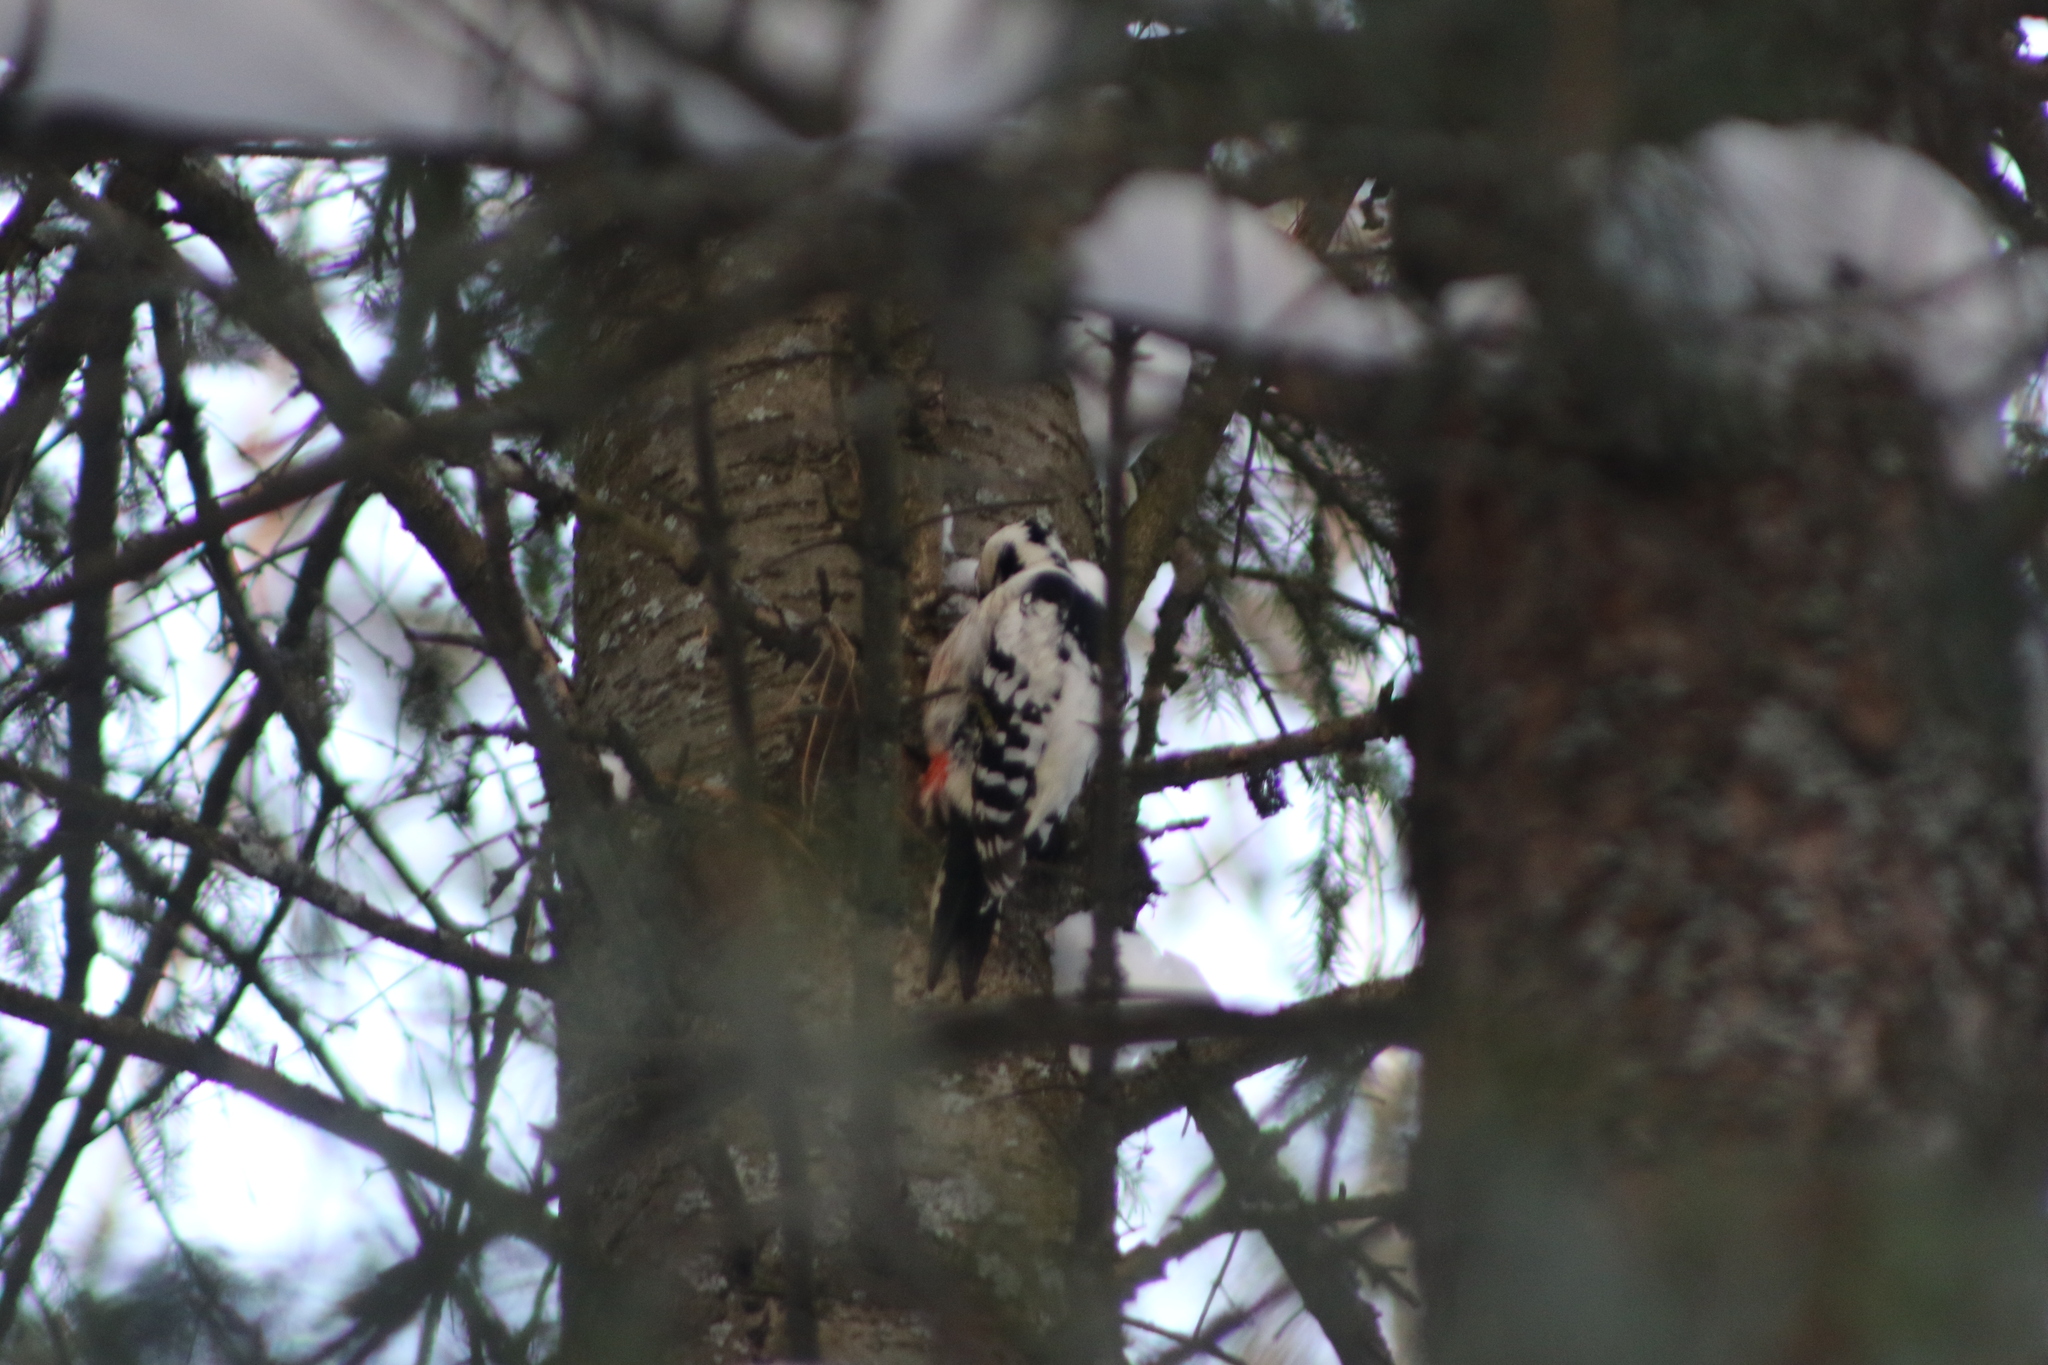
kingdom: Animalia
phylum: Chordata
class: Aves
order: Piciformes
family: Picidae
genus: Dendrocopos
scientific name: Dendrocopos leucotos
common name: White-backed woodpecker
